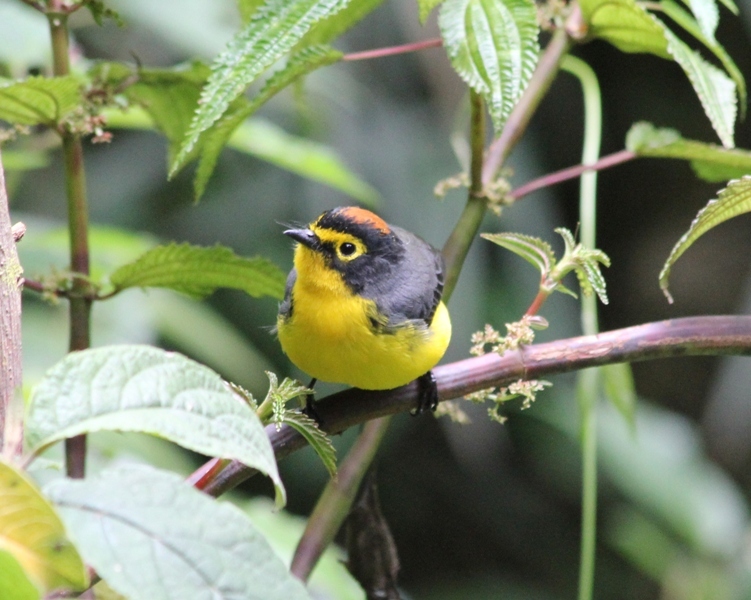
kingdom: Animalia
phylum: Chordata
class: Aves
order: Passeriformes
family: Parulidae
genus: Myioborus
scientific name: Myioborus melanocephalus
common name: Spectacled whitestart
